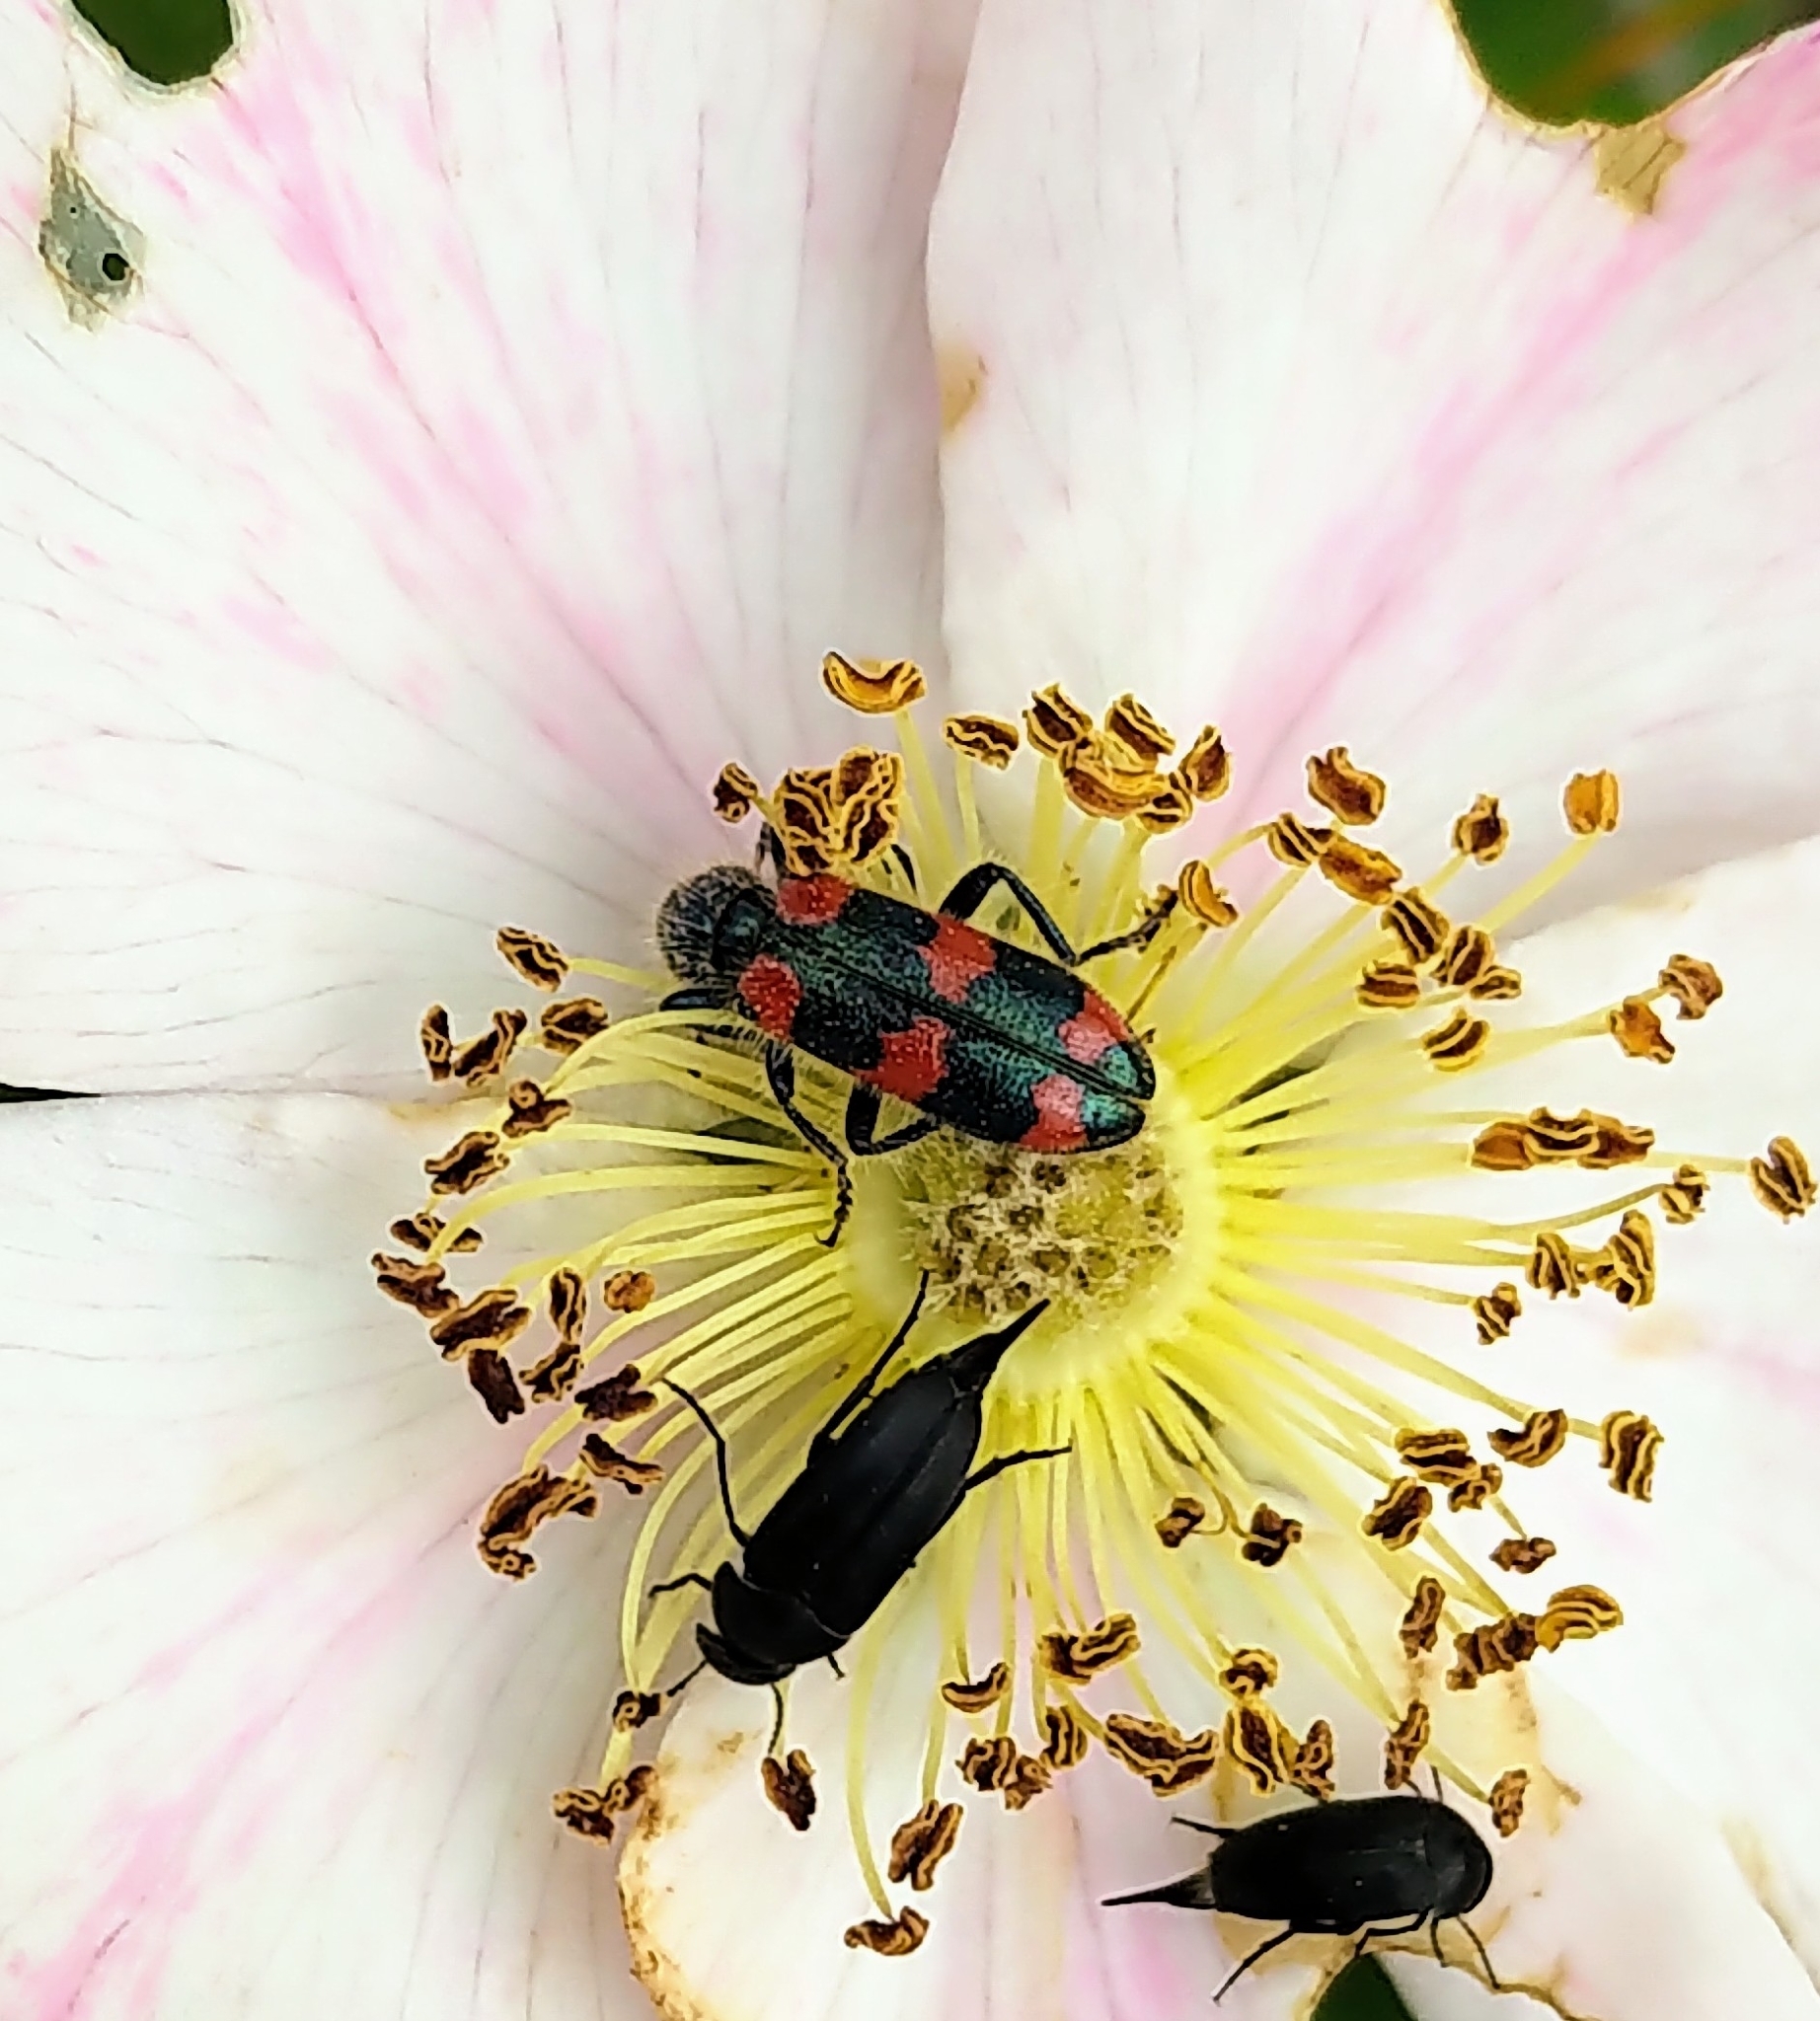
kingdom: Animalia
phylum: Arthropoda
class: Insecta
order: Coleoptera
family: Cleridae
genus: Trichodes
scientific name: Trichodes nutalli
